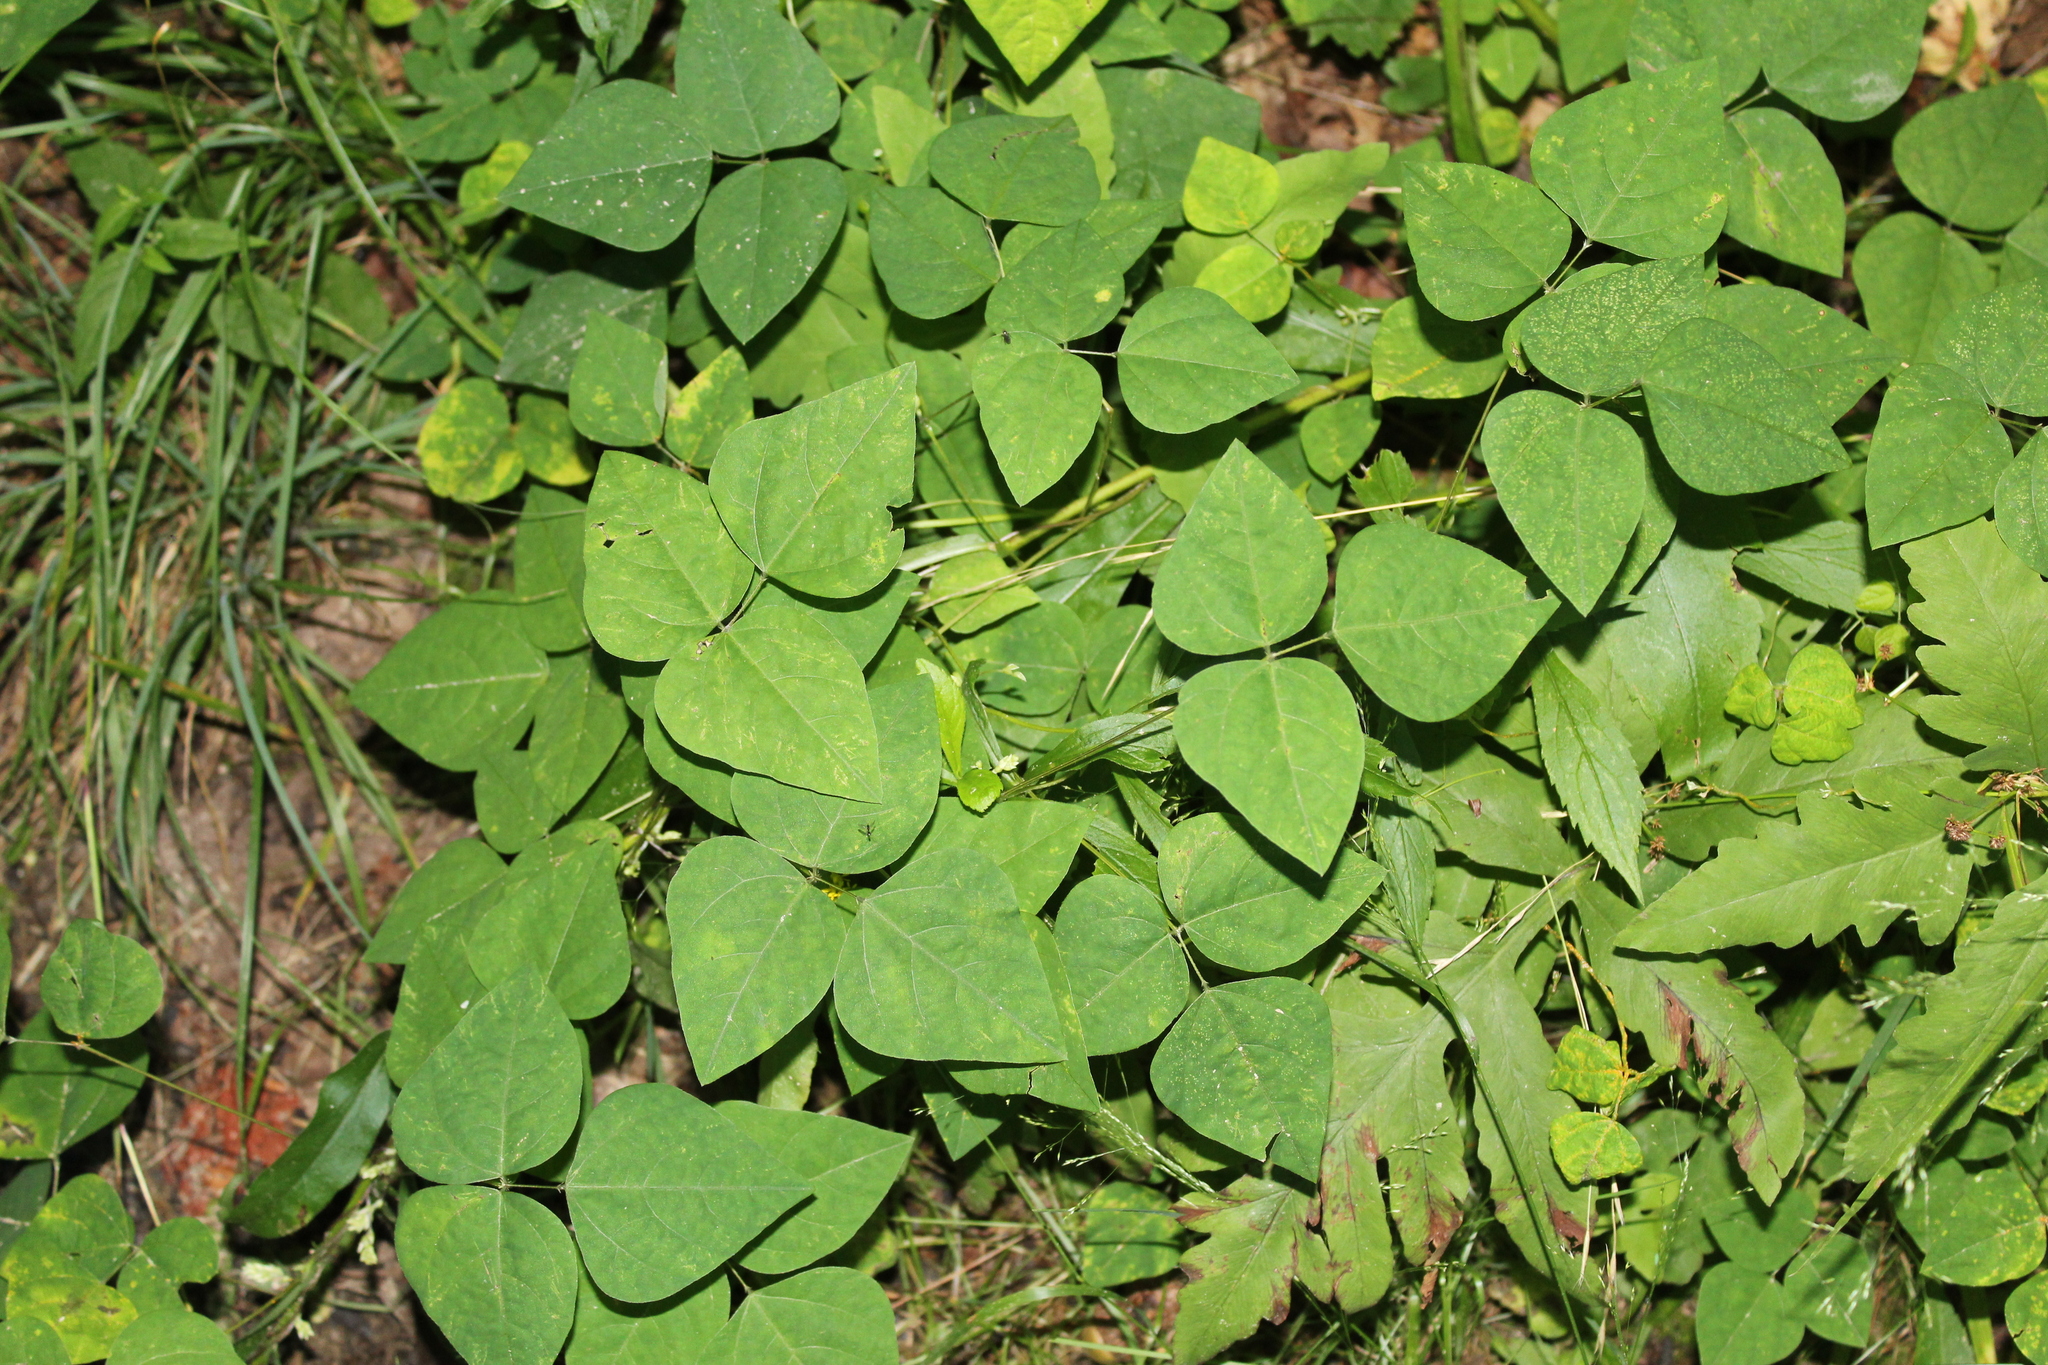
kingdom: Plantae
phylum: Tracheophyta
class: Magnoliopsida
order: Fabales
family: Fabaceae
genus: Amphicarpaea
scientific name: Amphicarpaea bracteata
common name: American hog peanut
